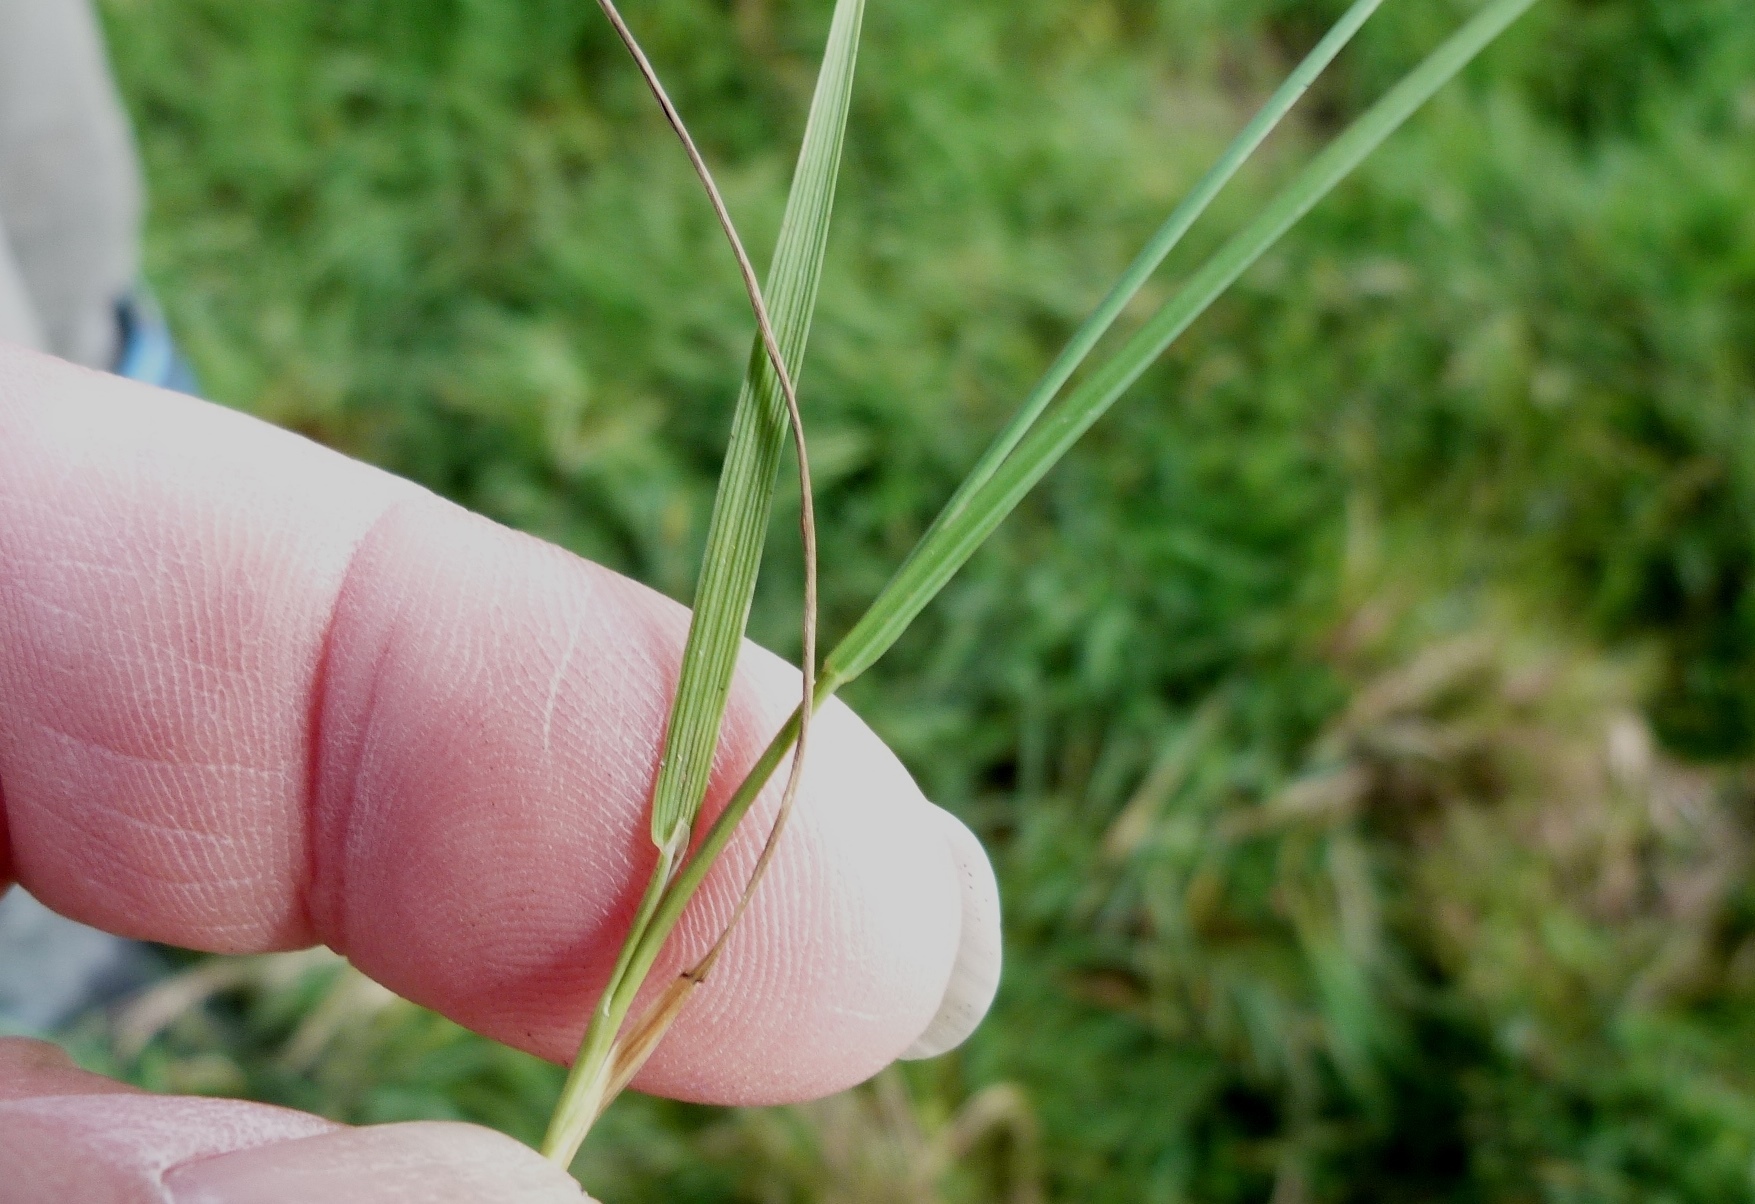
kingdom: Plantae
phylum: Tracheophyta
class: Liliopsida
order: Poales
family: Poaceae
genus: Agrostis
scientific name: Agrostis stolonifera
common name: Creeping bentgrass
